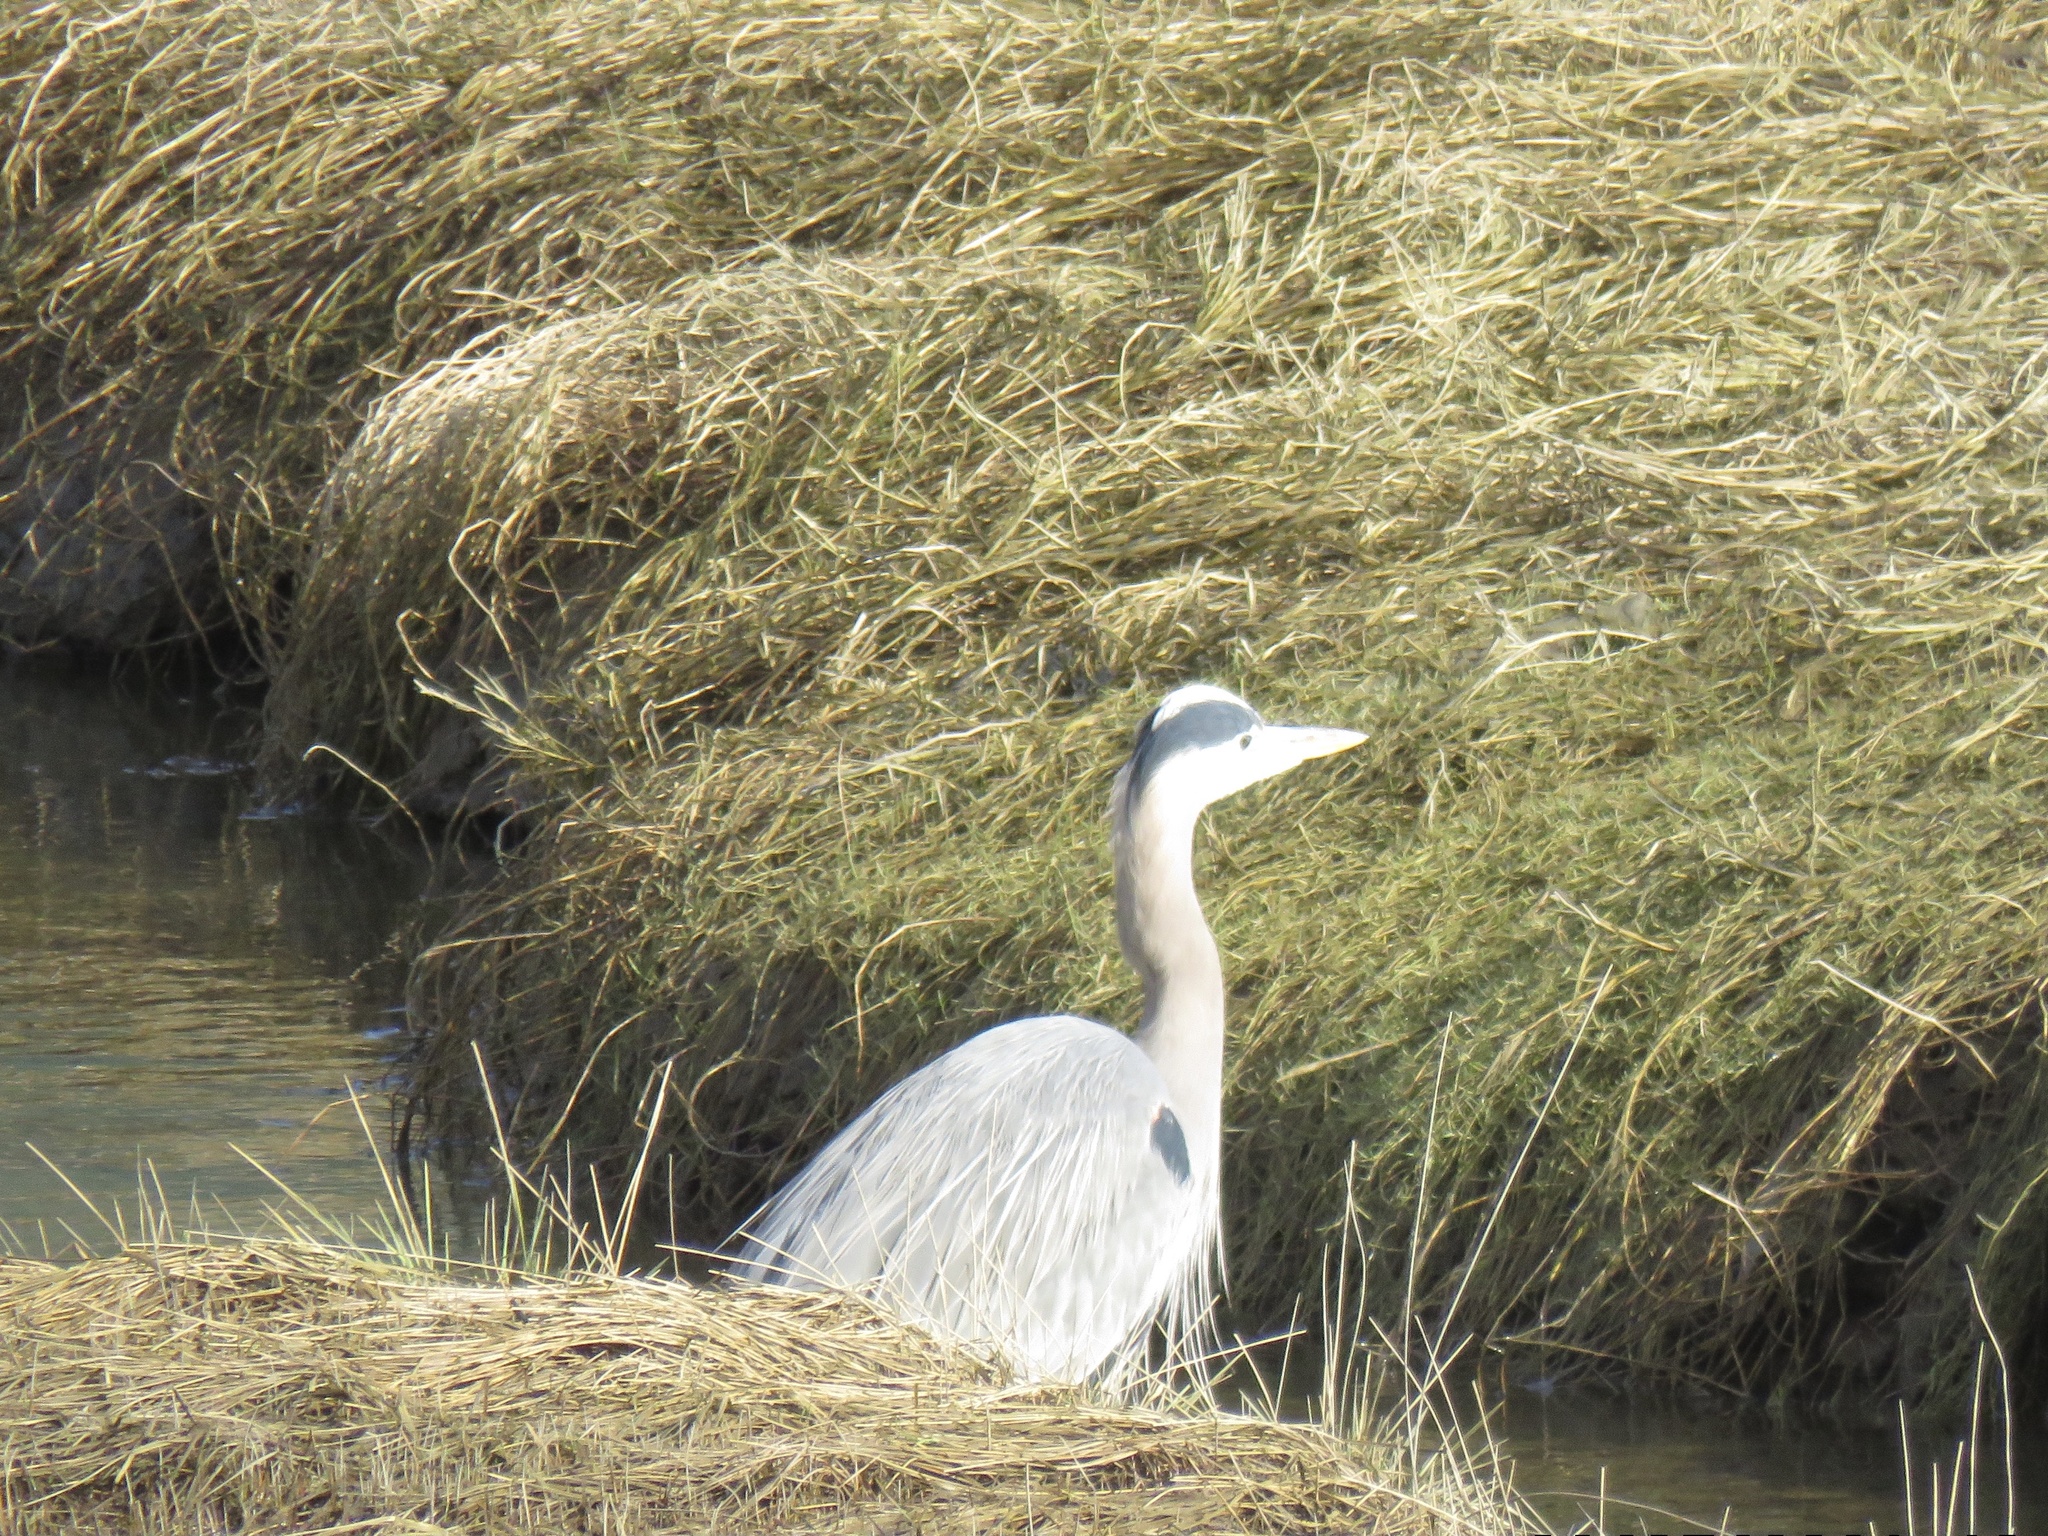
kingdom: Animalia
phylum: Chordata
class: Aves
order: Pelecaniformes
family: Ardeidae
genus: Ardea
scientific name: Ardea herodias
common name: Great blue heron
